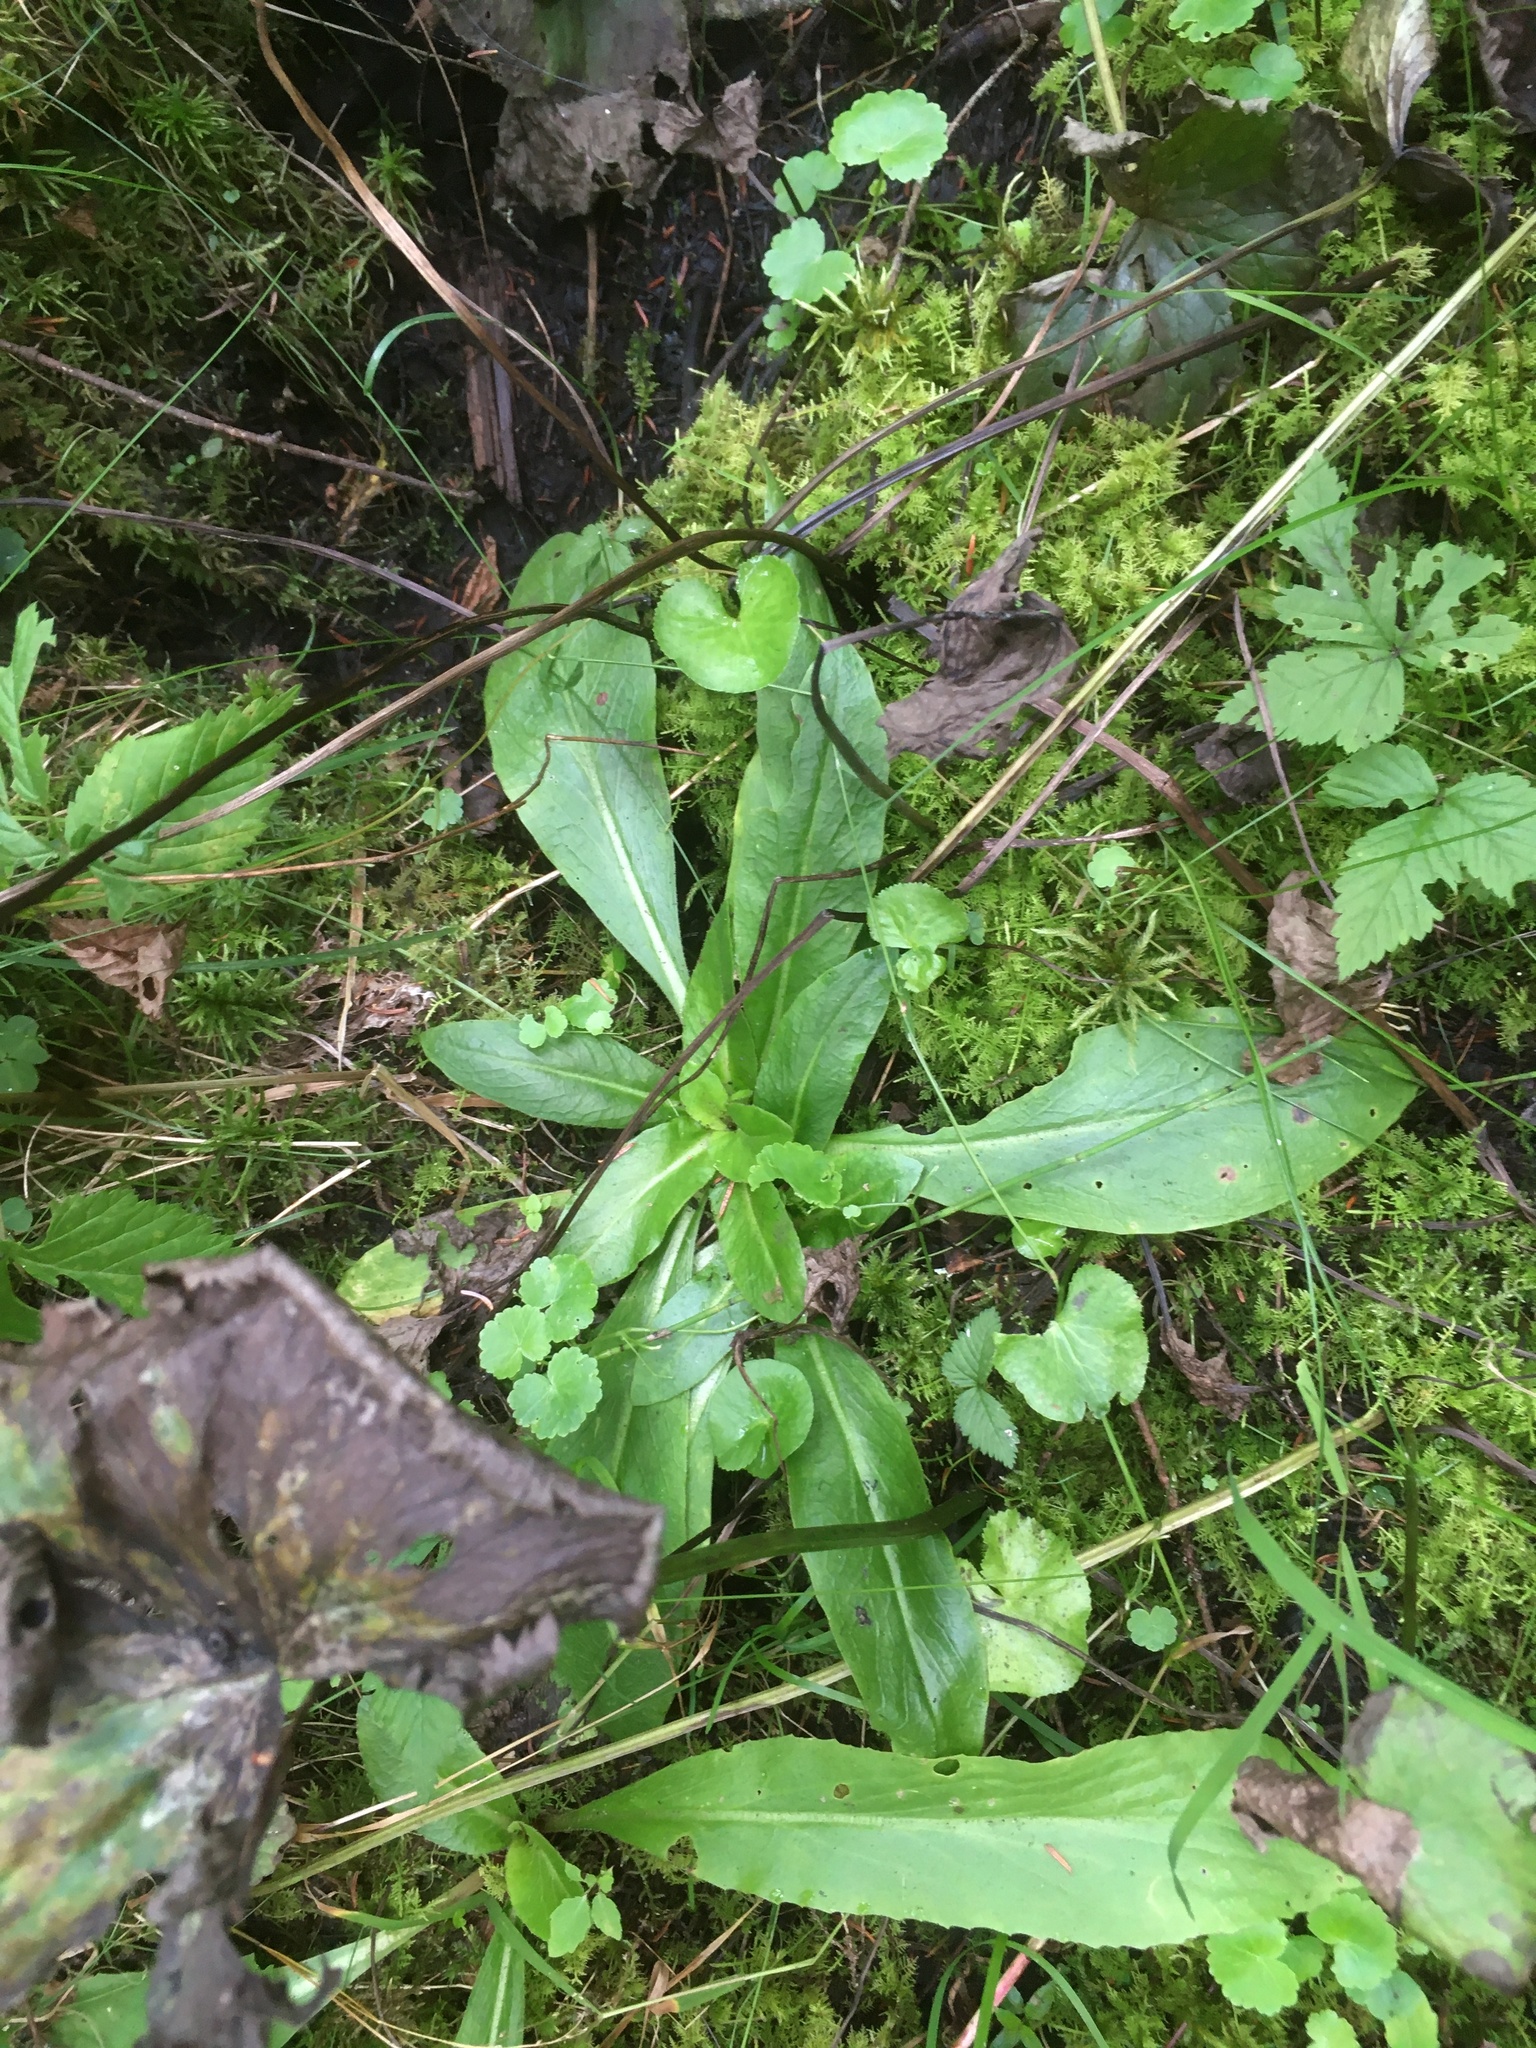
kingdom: Plantae
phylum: Tracheophyta
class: Magnoliopsida
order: Saxifragales
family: Saxifragaceae
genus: Micranthes
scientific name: Micranthes pensylvanica
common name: Marsh saxifrage
